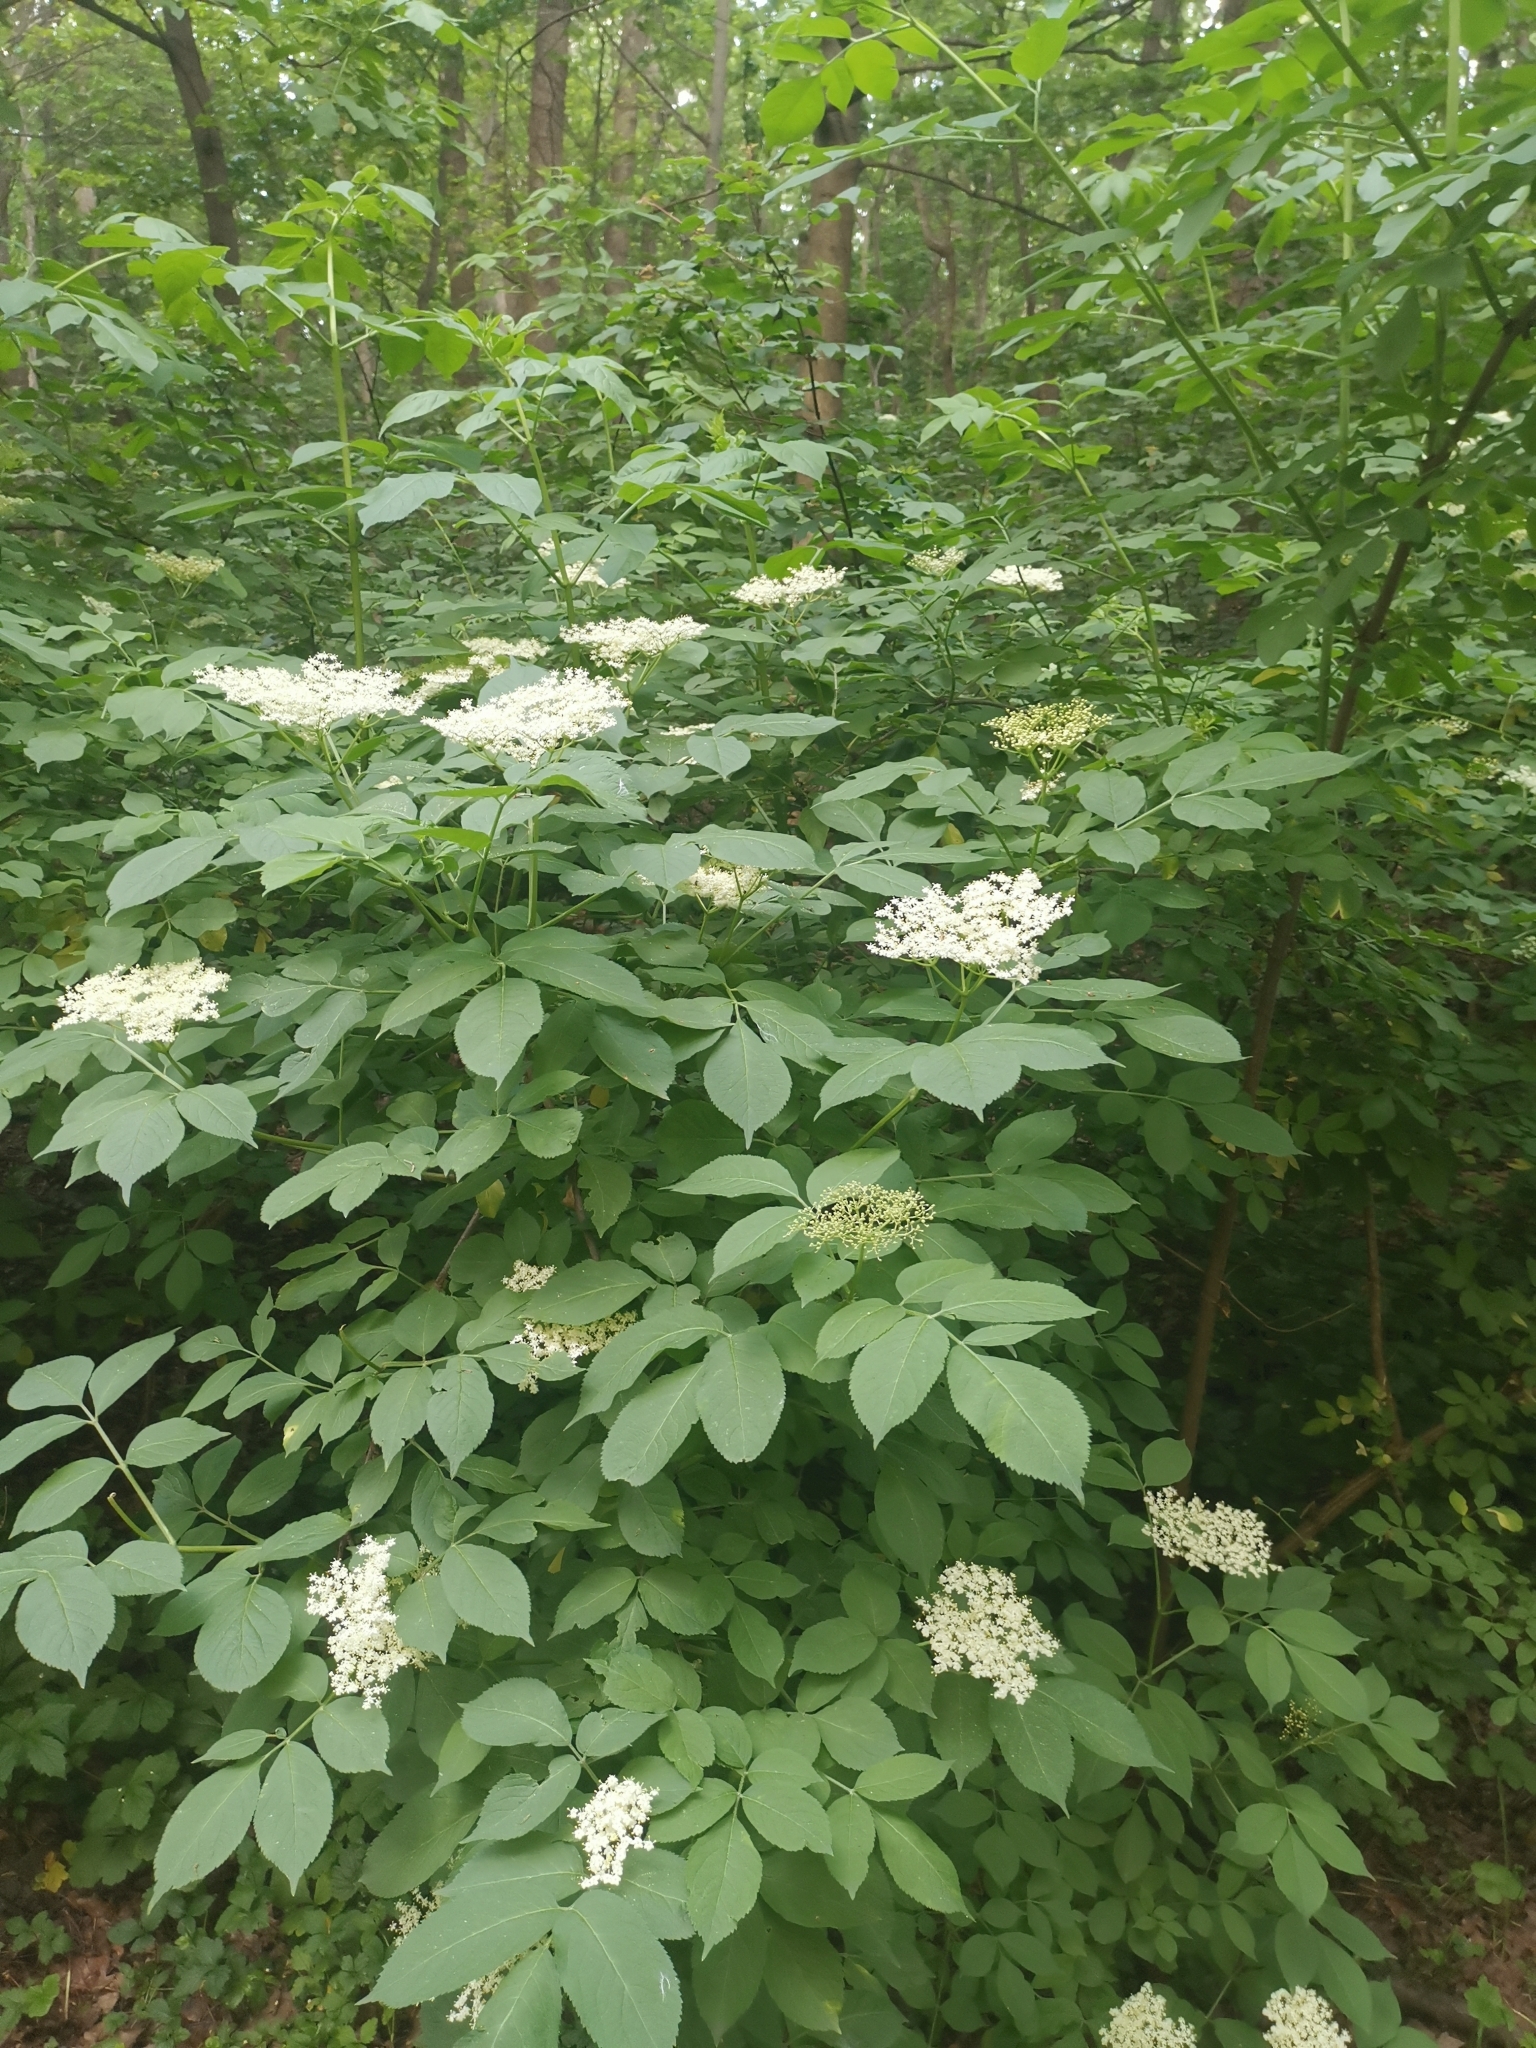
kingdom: Plantae
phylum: Tracheophyta
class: Magnoliopsida
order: Dipsacales
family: Viburnaceae
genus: Sambucus
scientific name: Sambucus nigra
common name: Elder
